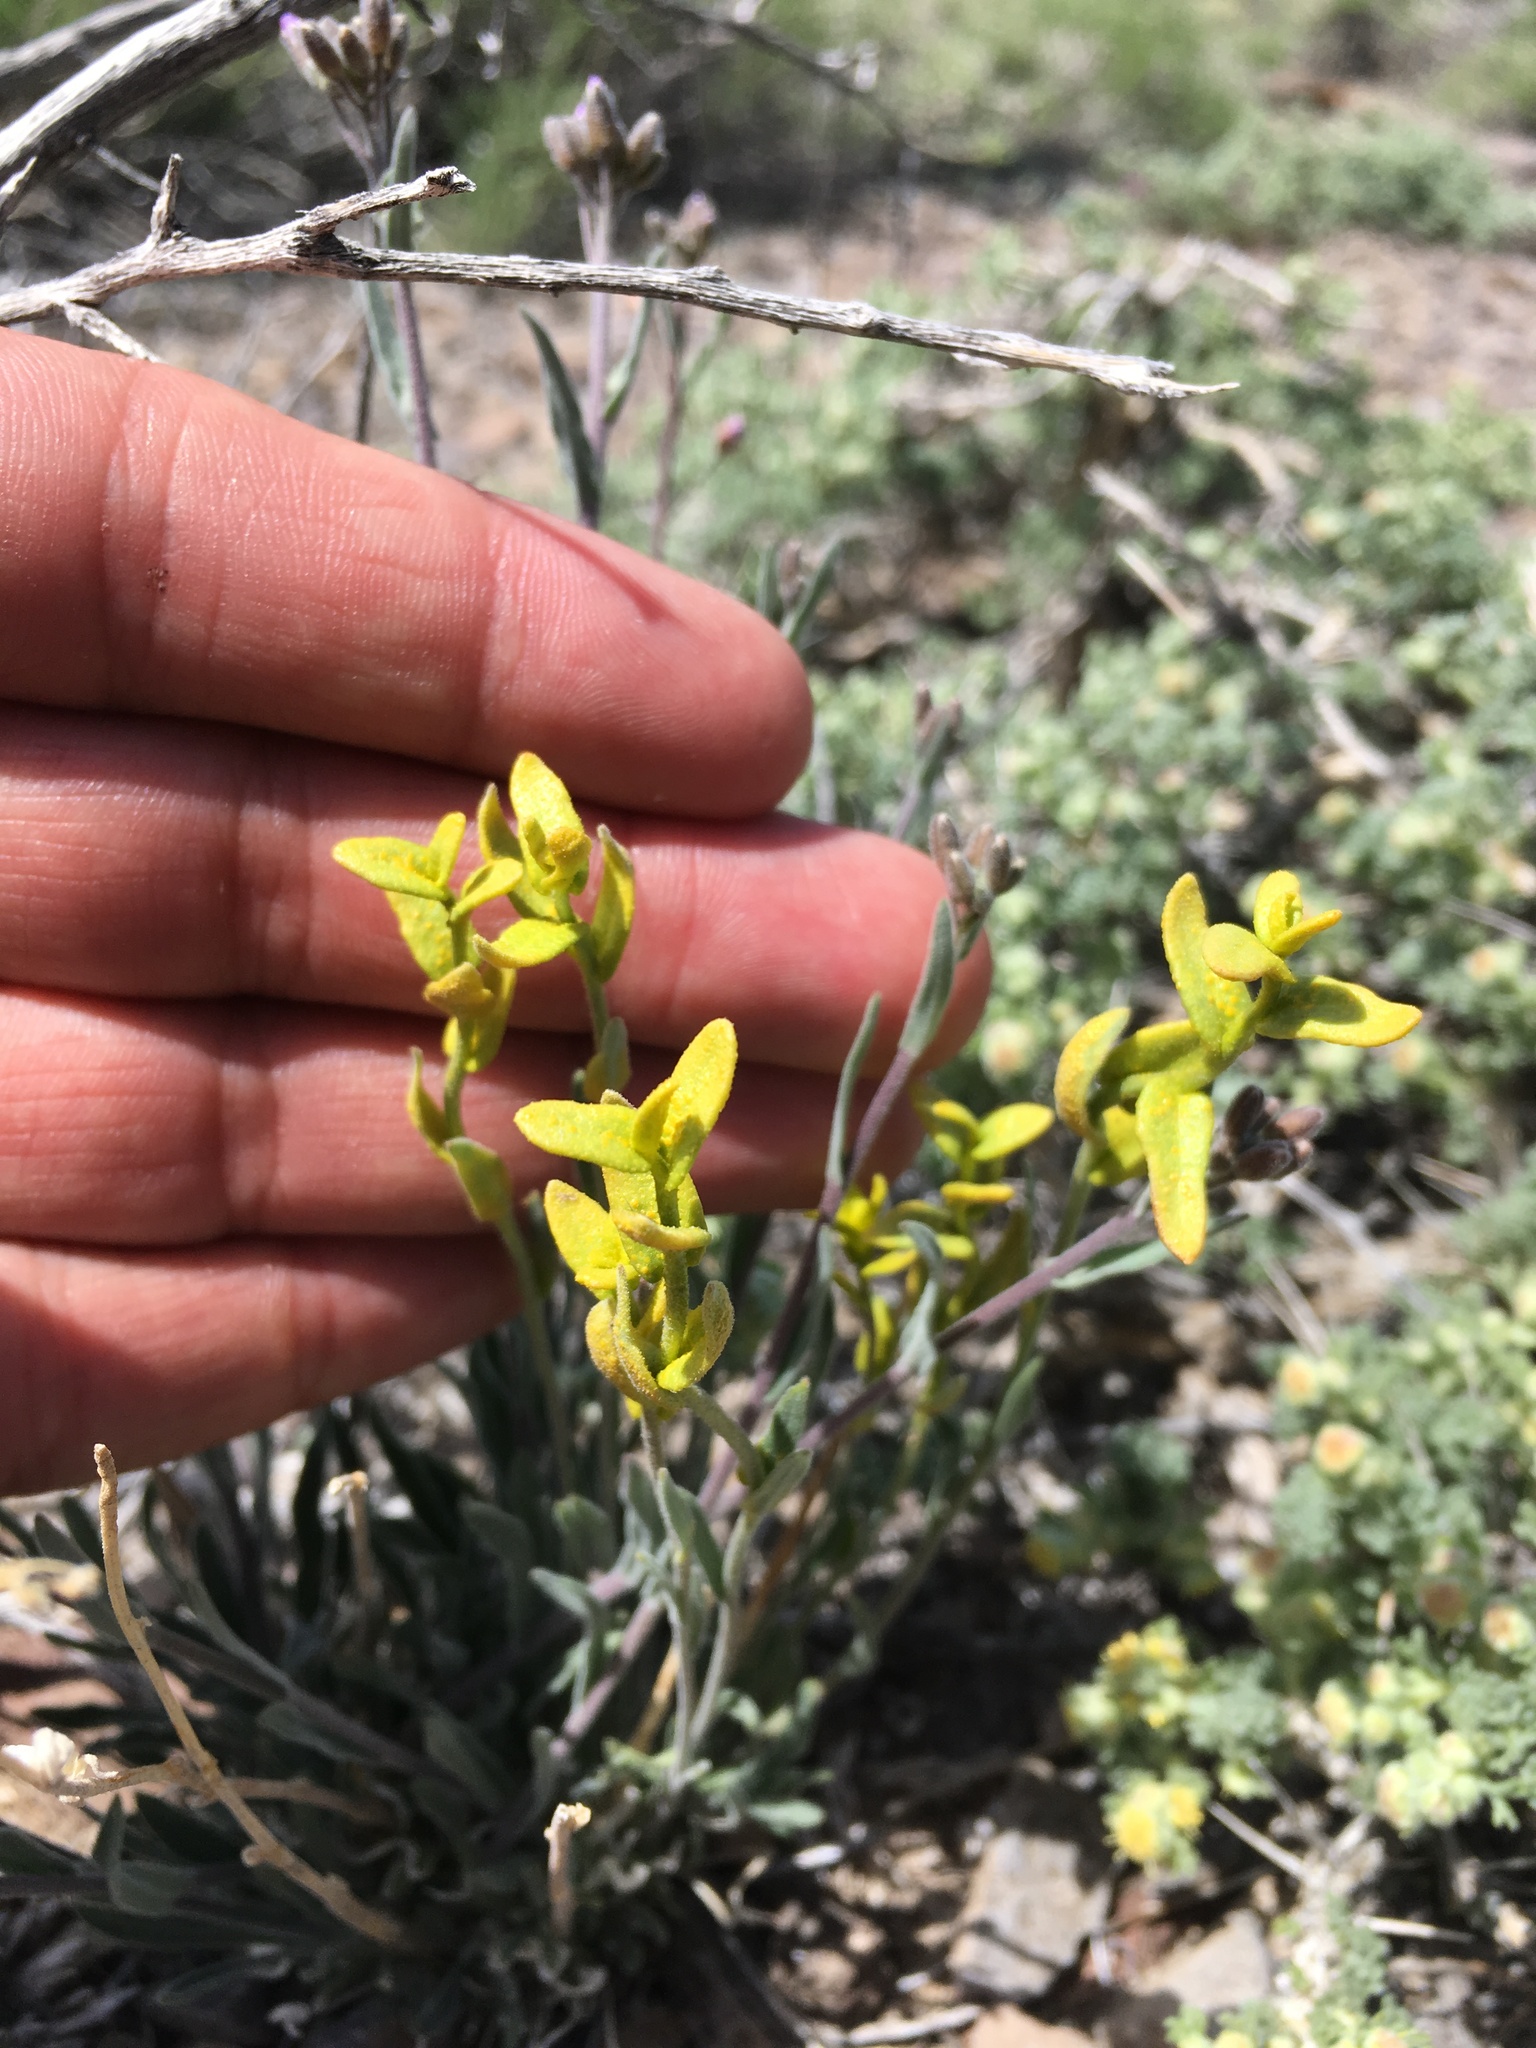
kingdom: Fungi
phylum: Basidiomycota
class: Pucciniomycetes
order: Pucciniales
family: Pucciniaceae
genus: Puccinia
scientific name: Puccinia monoica
